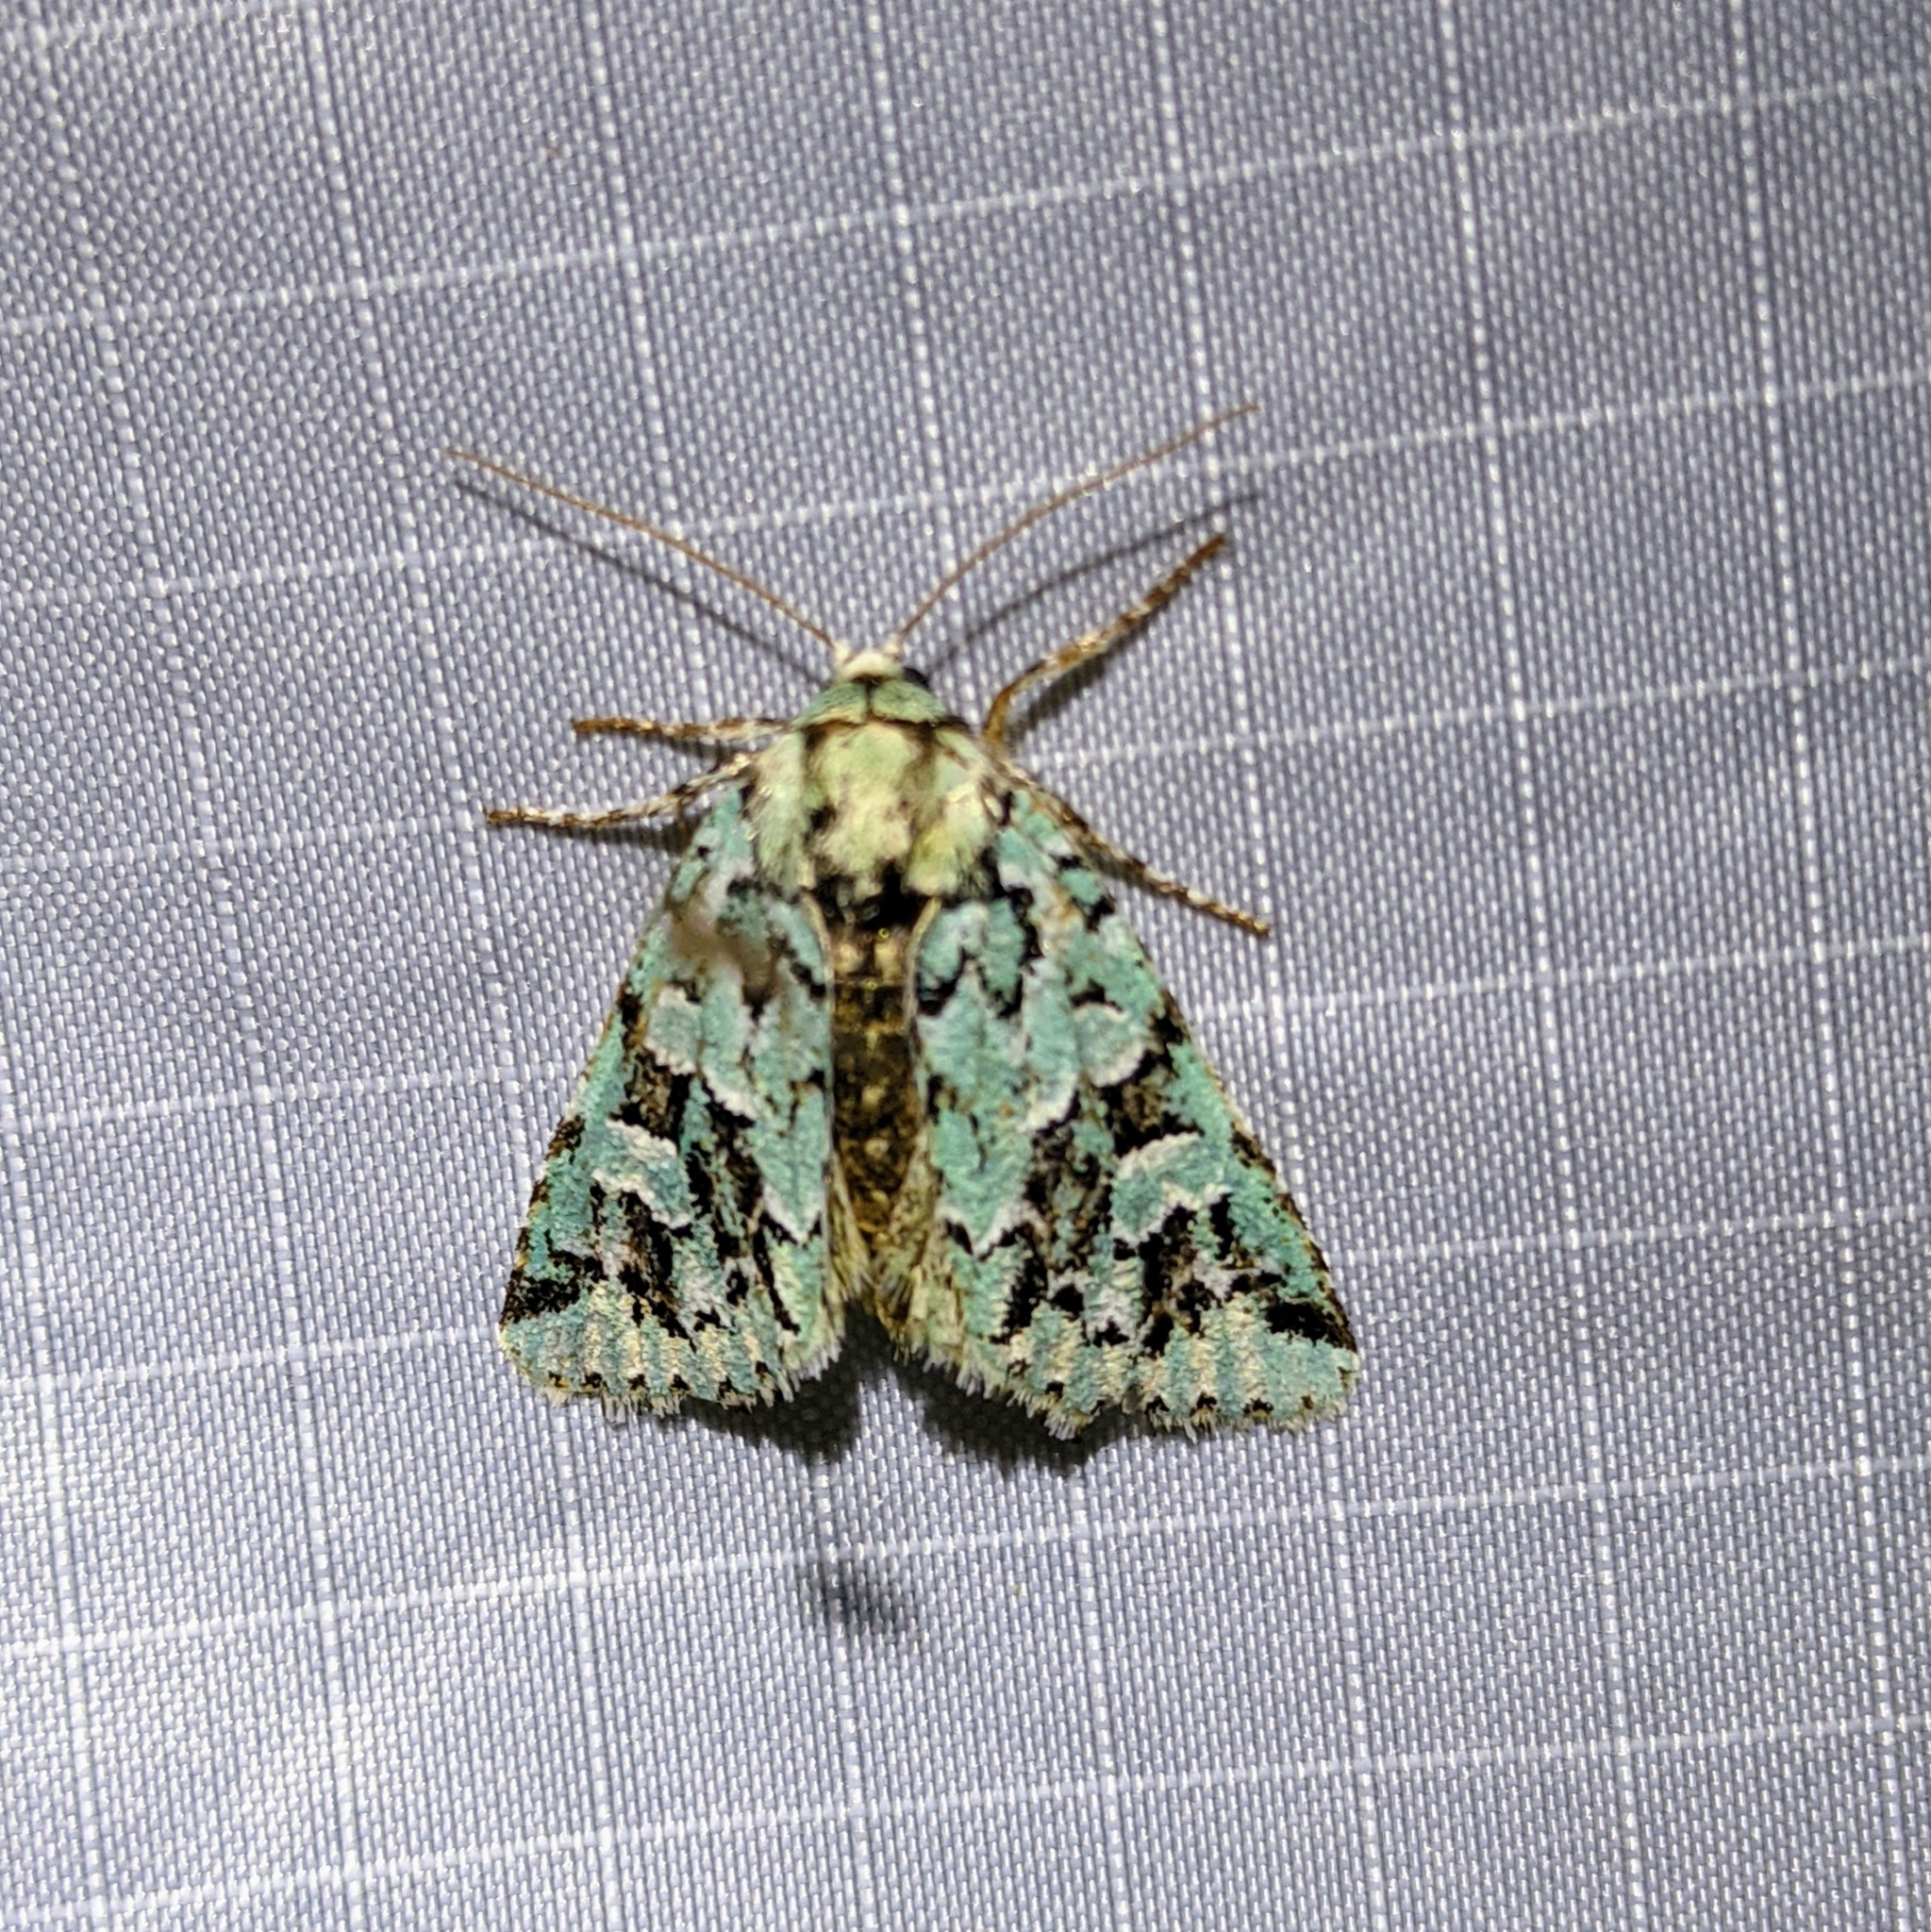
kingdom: Animalia
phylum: Arthropoda
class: Insecta
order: Lepidoptera
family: Noctuidae
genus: Feralia
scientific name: Feralia comstocki
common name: Comstock's sallow
